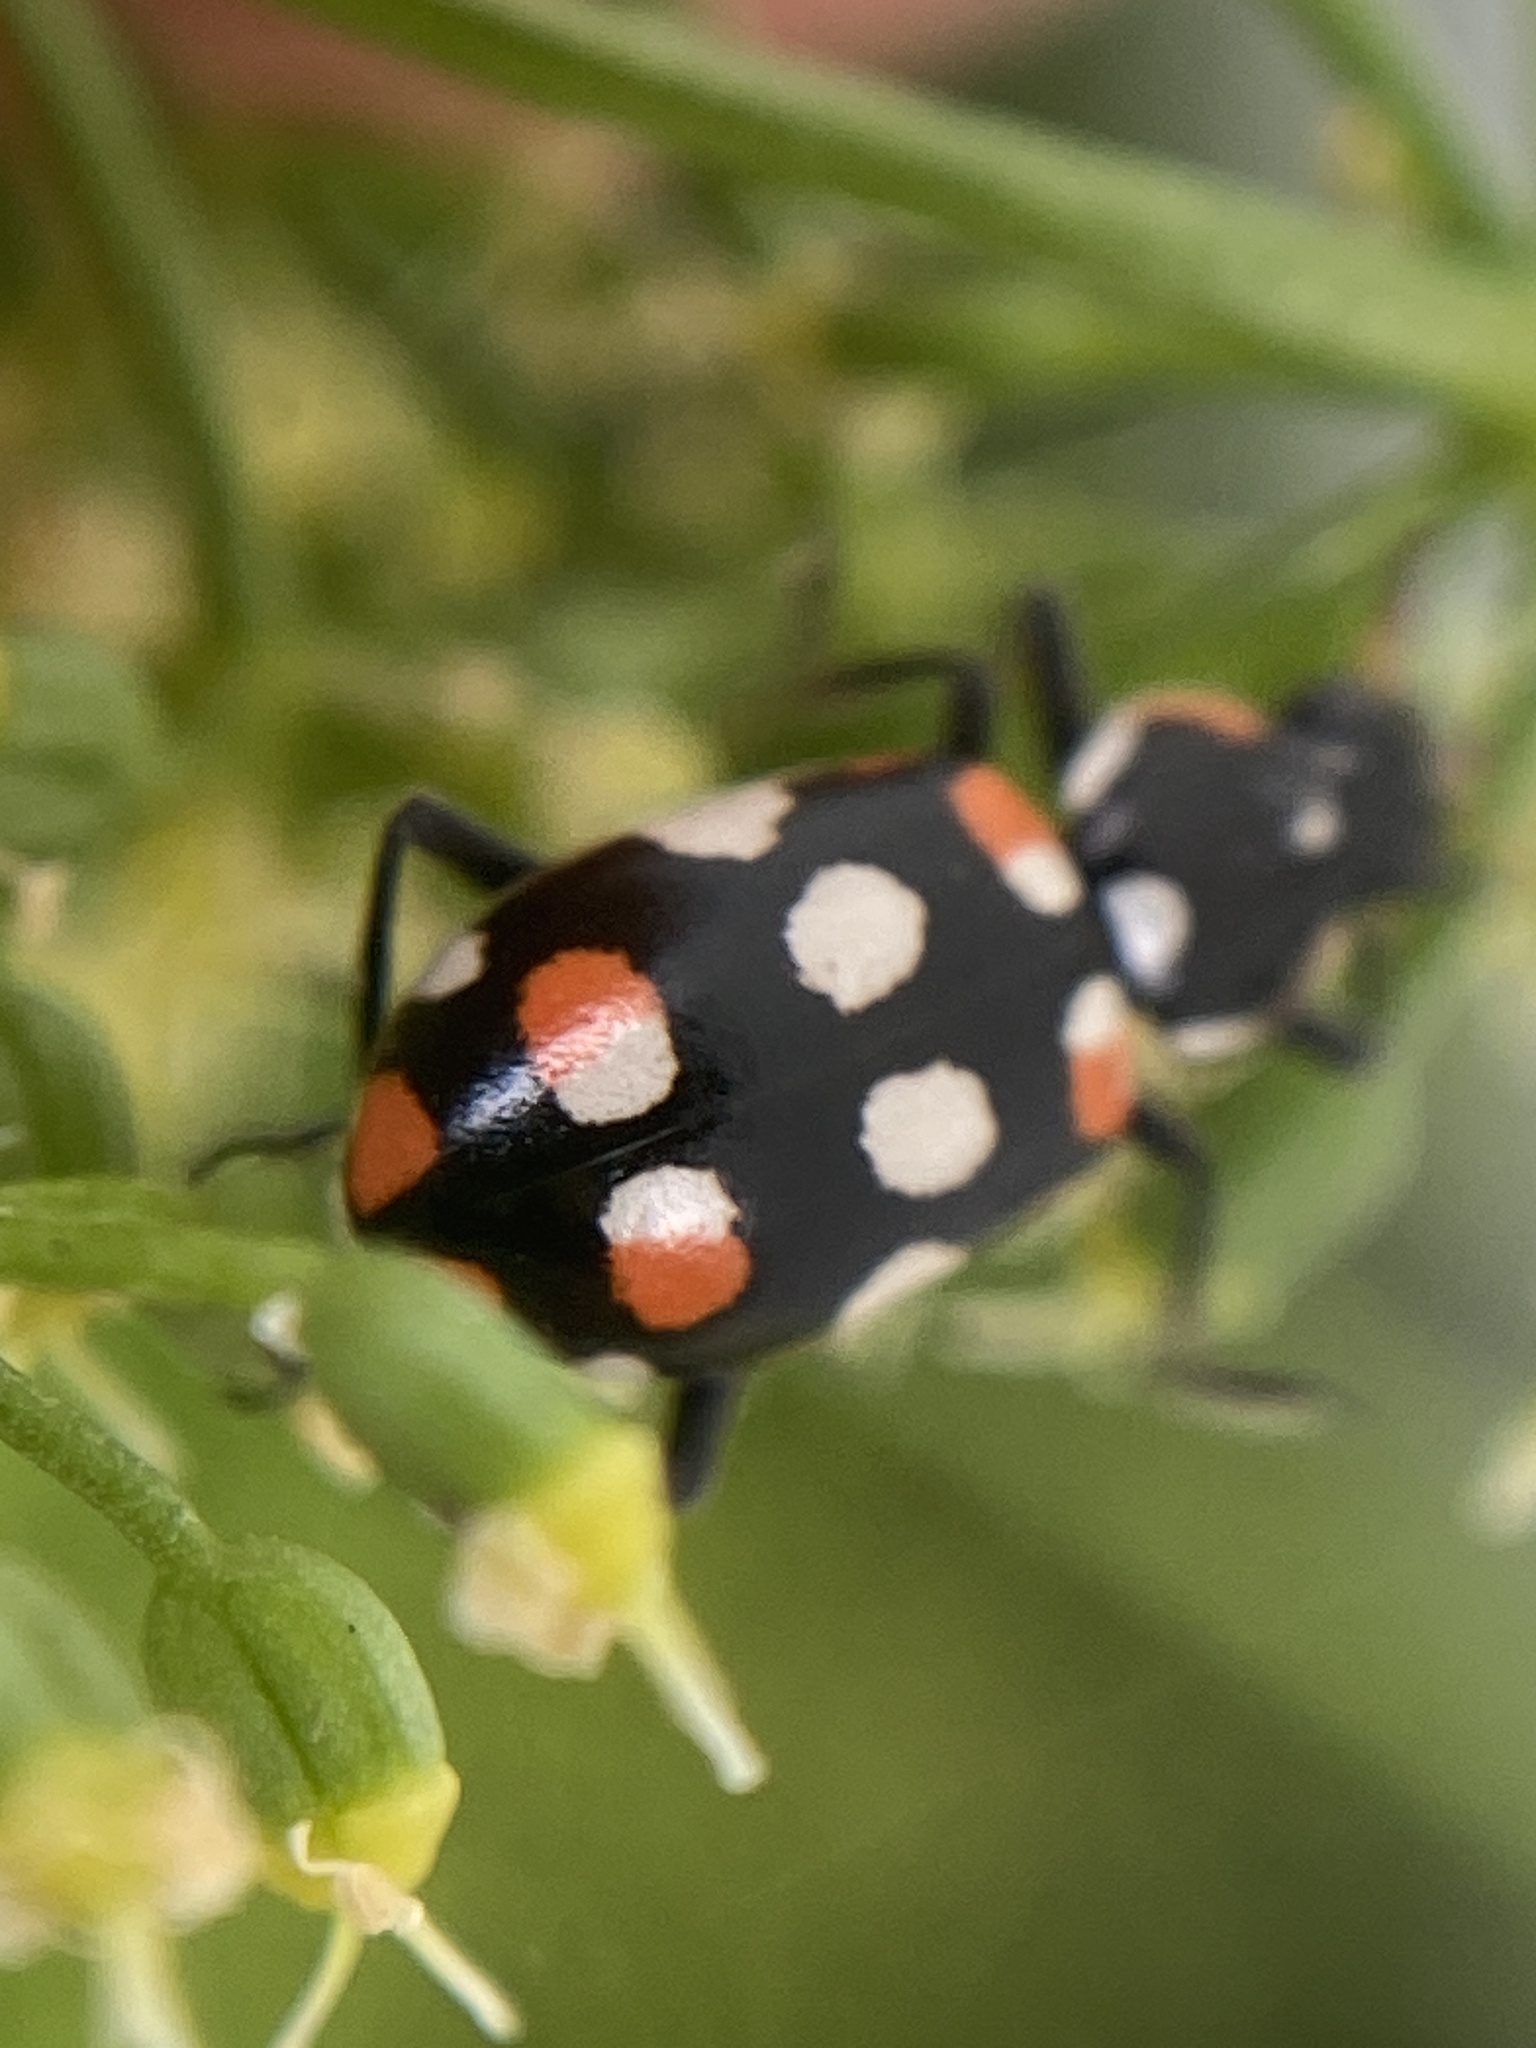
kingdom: Animalia
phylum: Arthropoda
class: Insecta
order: Coleoptera
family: Coccinellidae
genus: Eriopis
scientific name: Eriopis connexa
